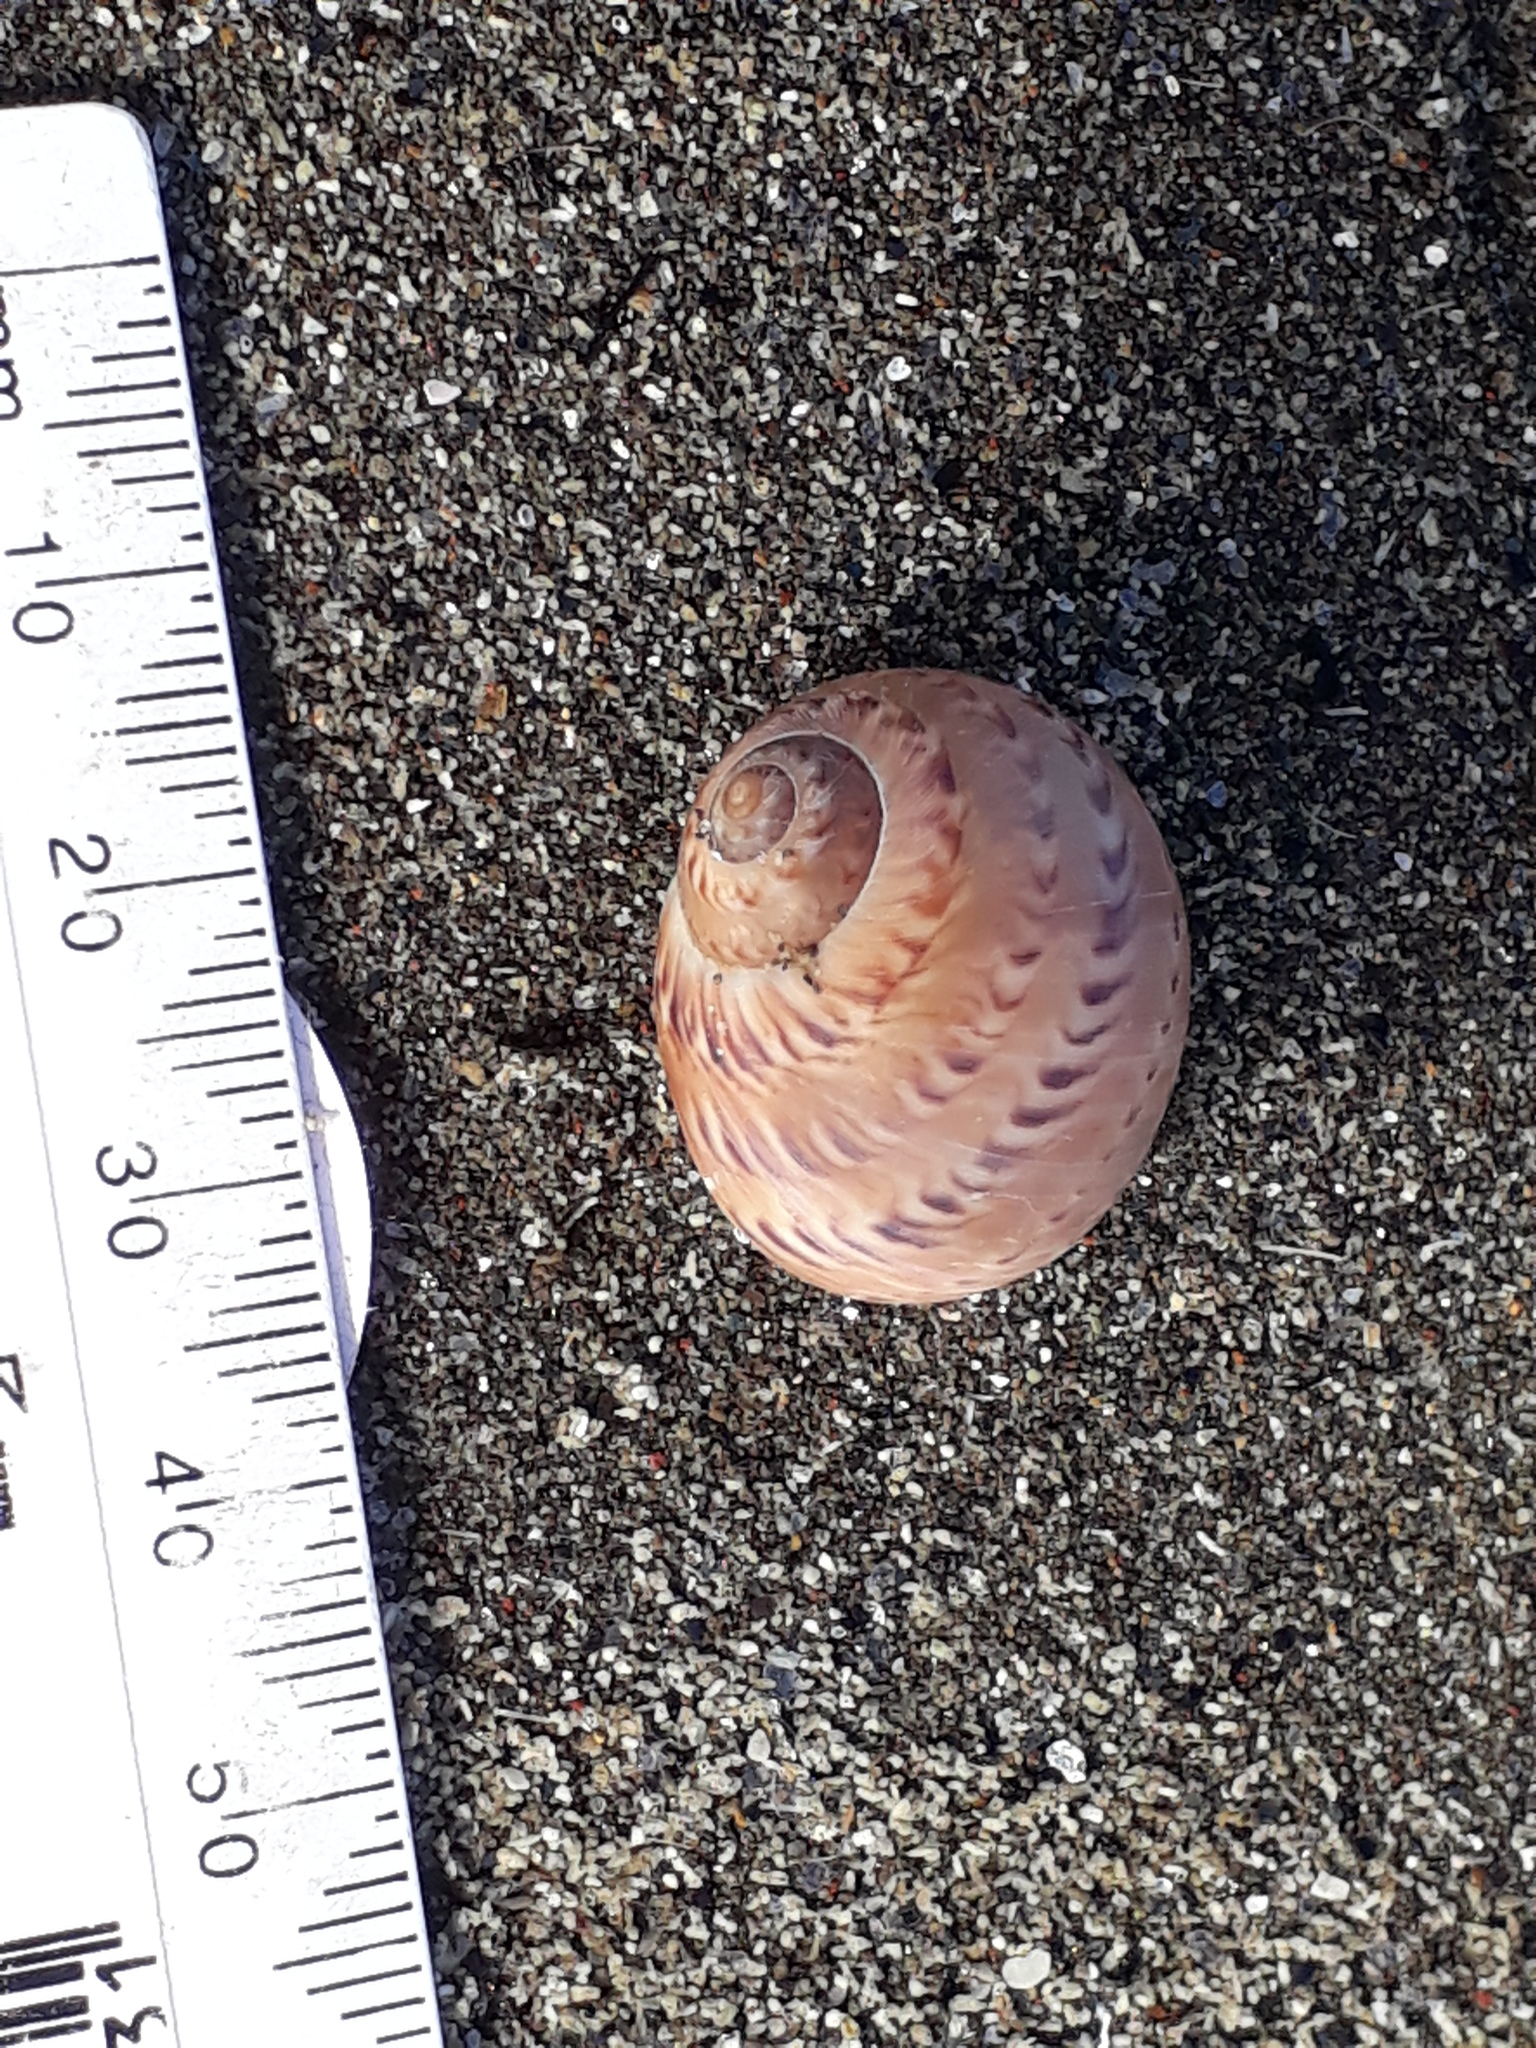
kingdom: Animalia
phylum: Mollusca
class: Gastropoda
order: Littorinimorpha
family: Naticidae
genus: Tanea
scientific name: Tanea zelandica
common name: New zealand moonsnail
